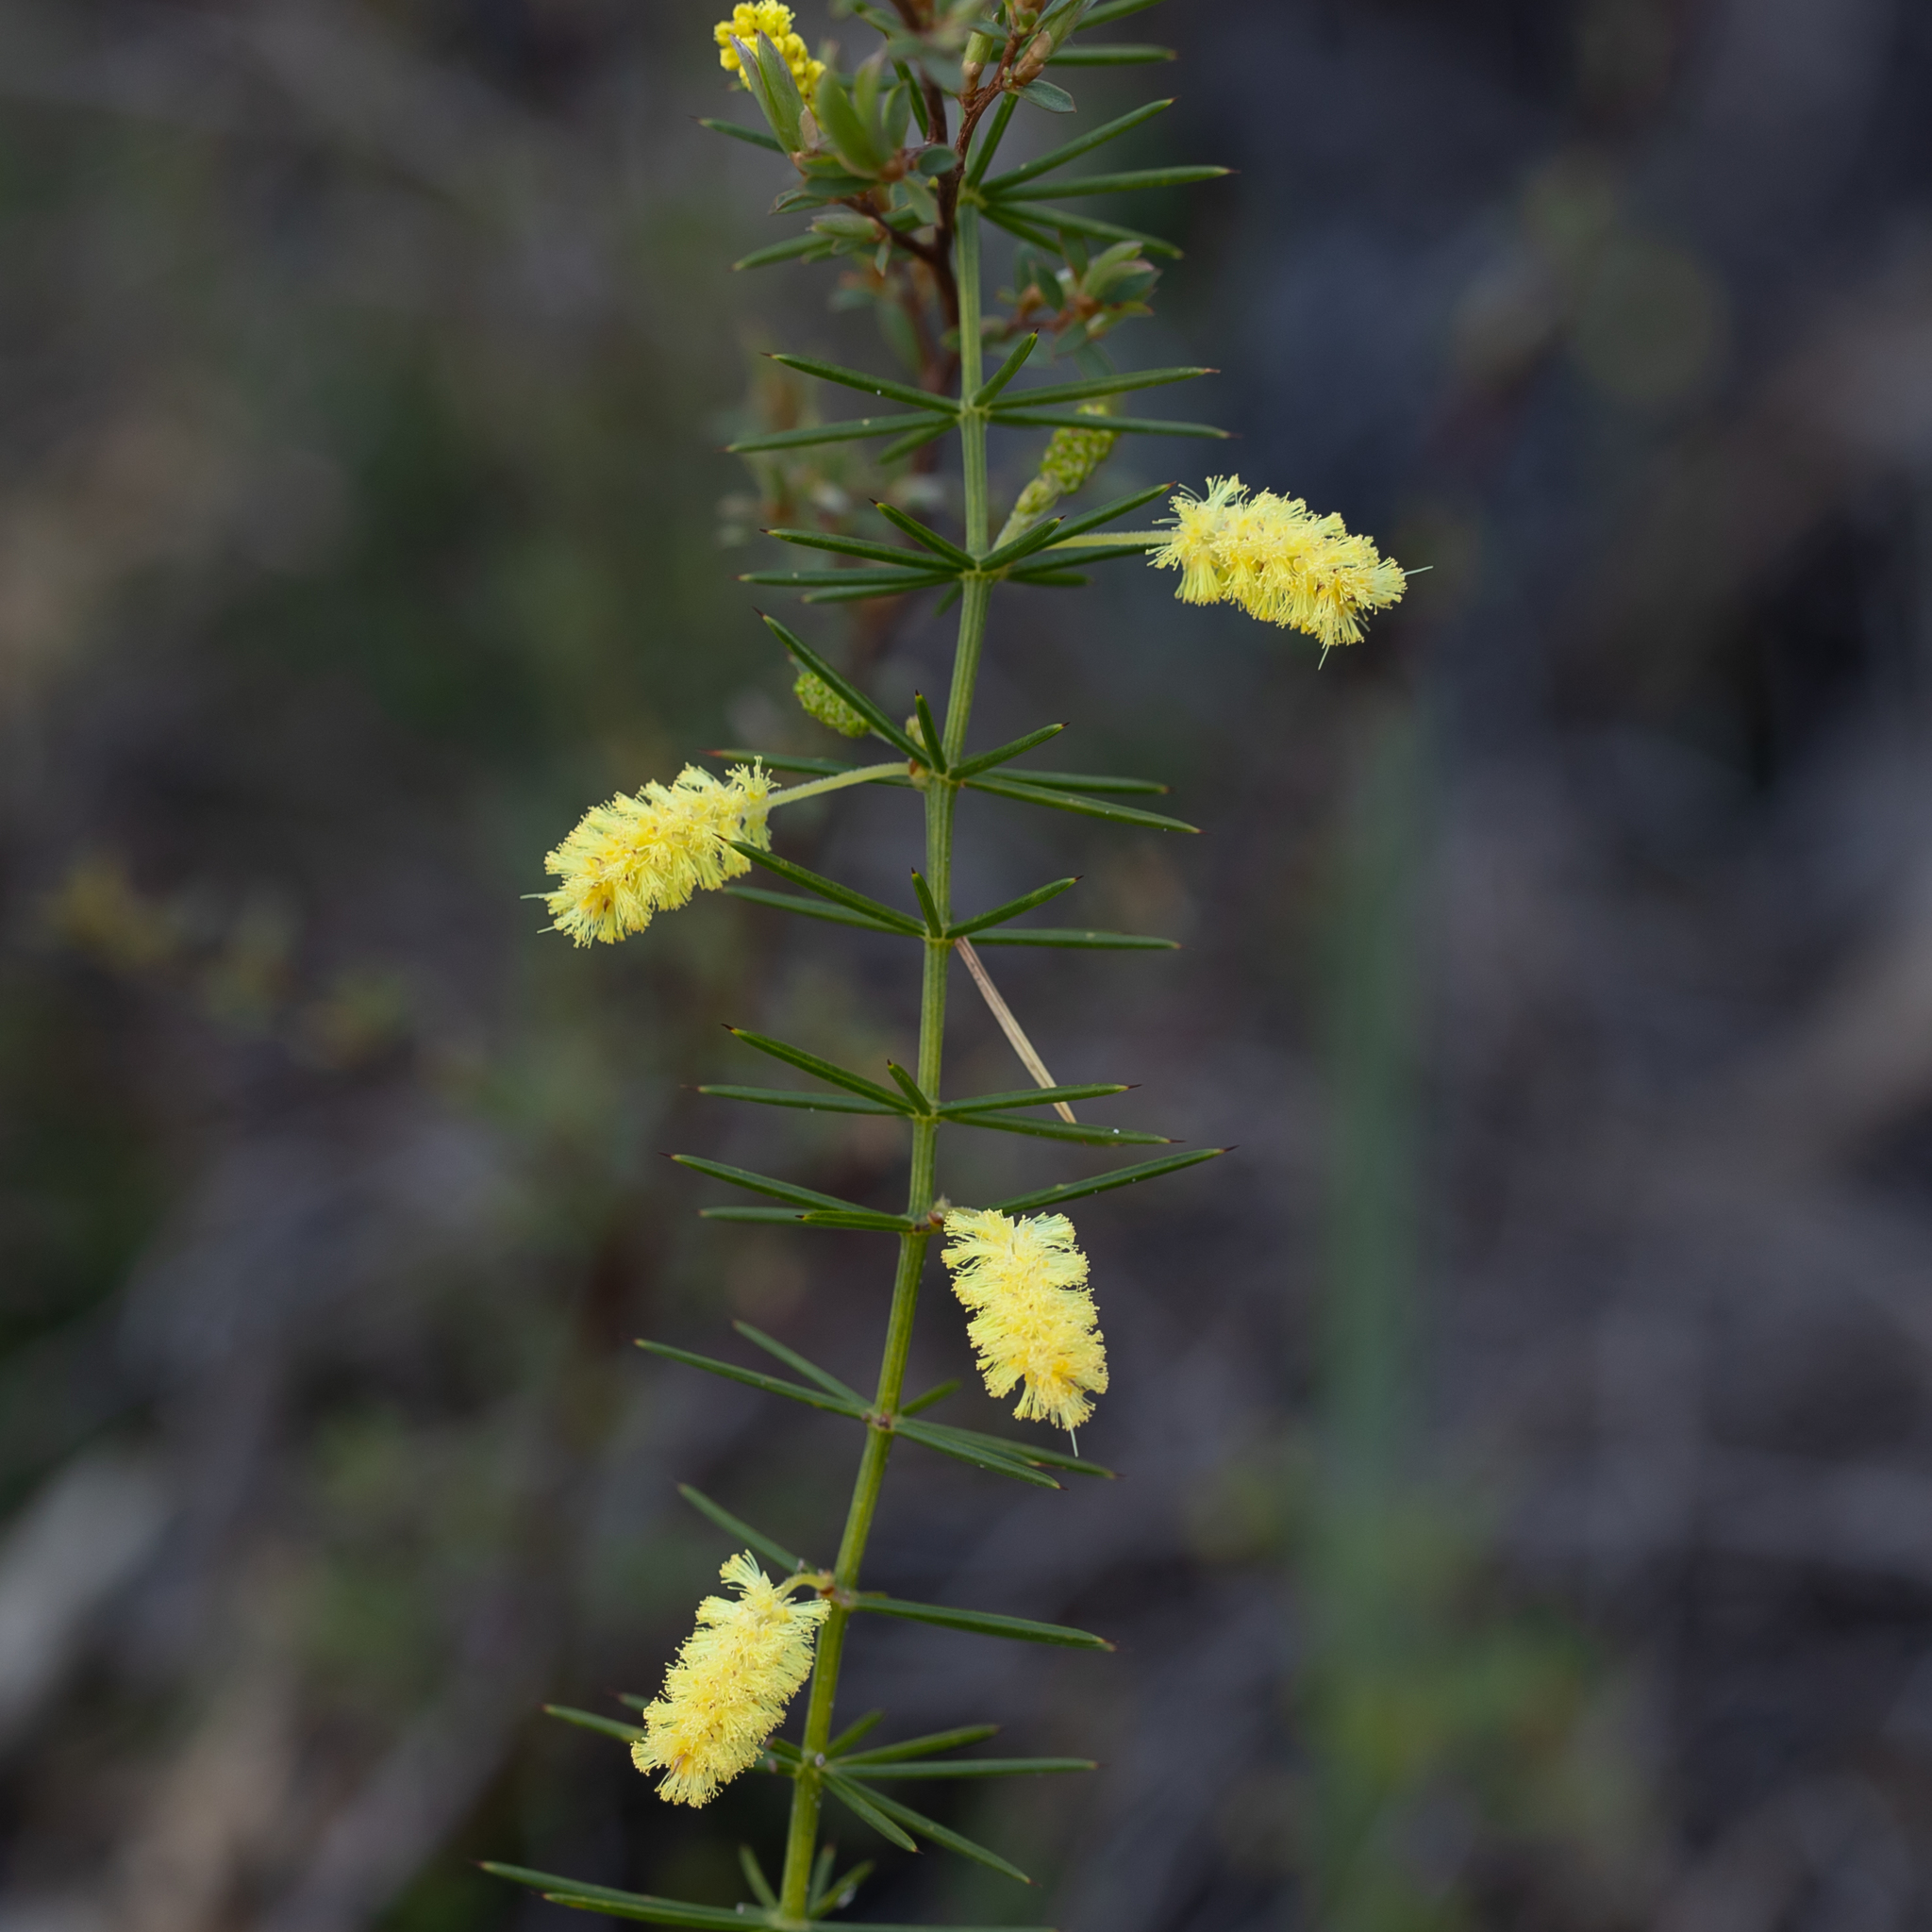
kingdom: Plantae
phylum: Tracheophyta
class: Magnoliopsida
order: Fabales
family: Fabaceae
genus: Acacia
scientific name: Acacia verticillata
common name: Prickly moses
